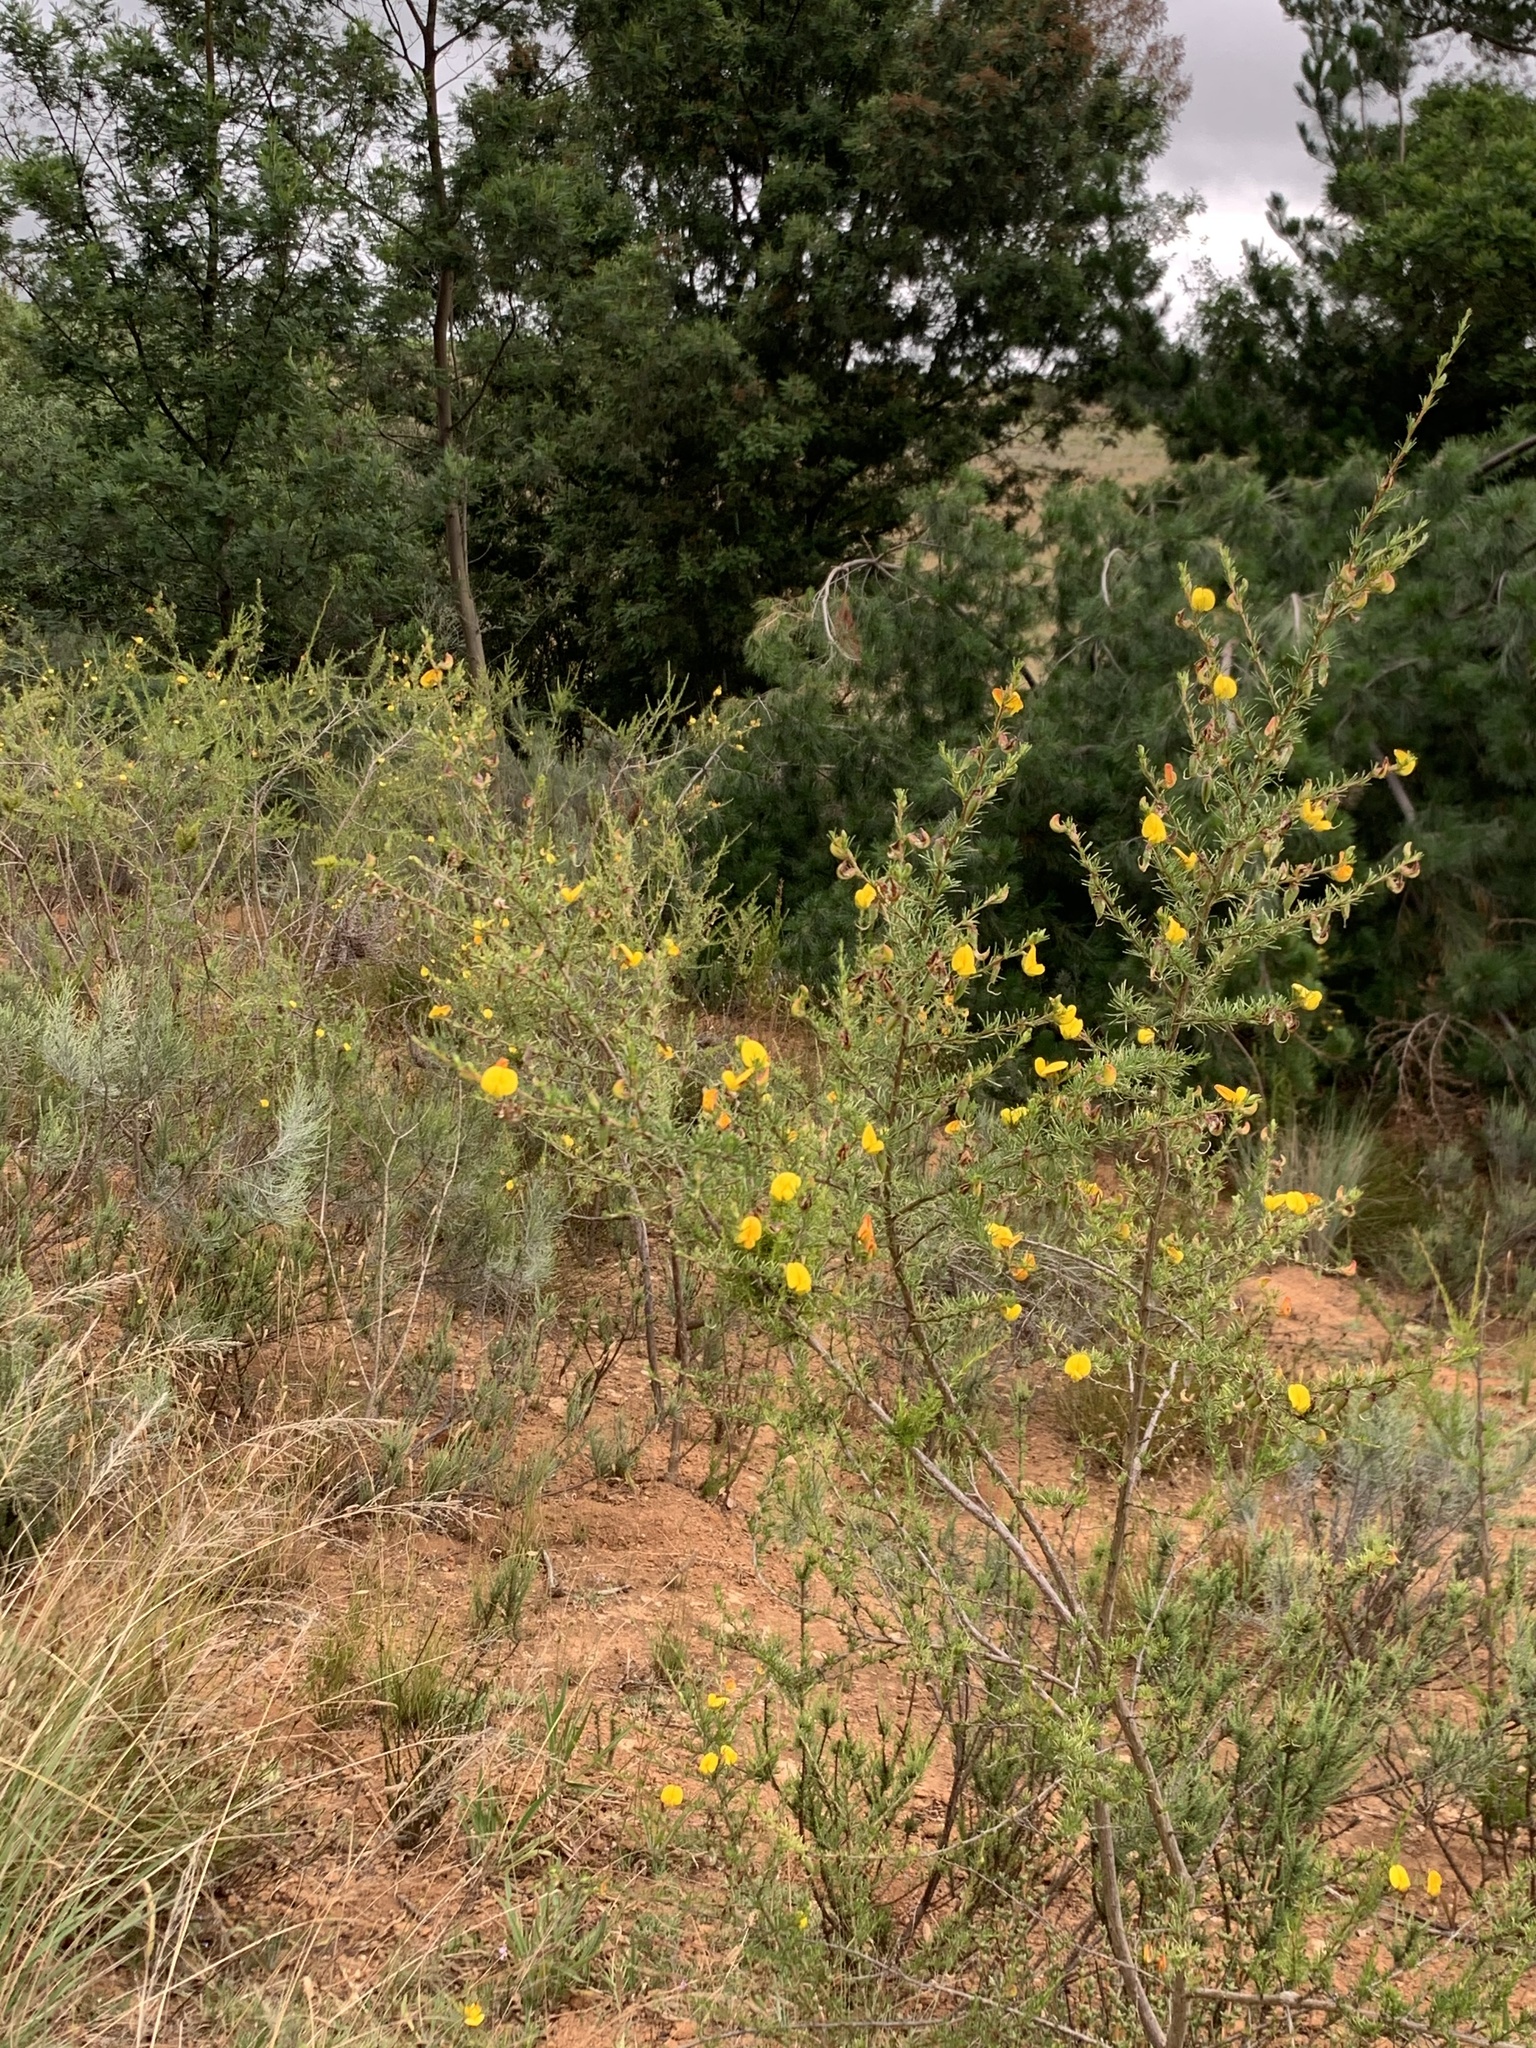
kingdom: Plantae
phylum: Tracheophyta
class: Magnoliopsida
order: Fabales
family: Fabaceae
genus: Aspalathus
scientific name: Aspalathus uniflora
